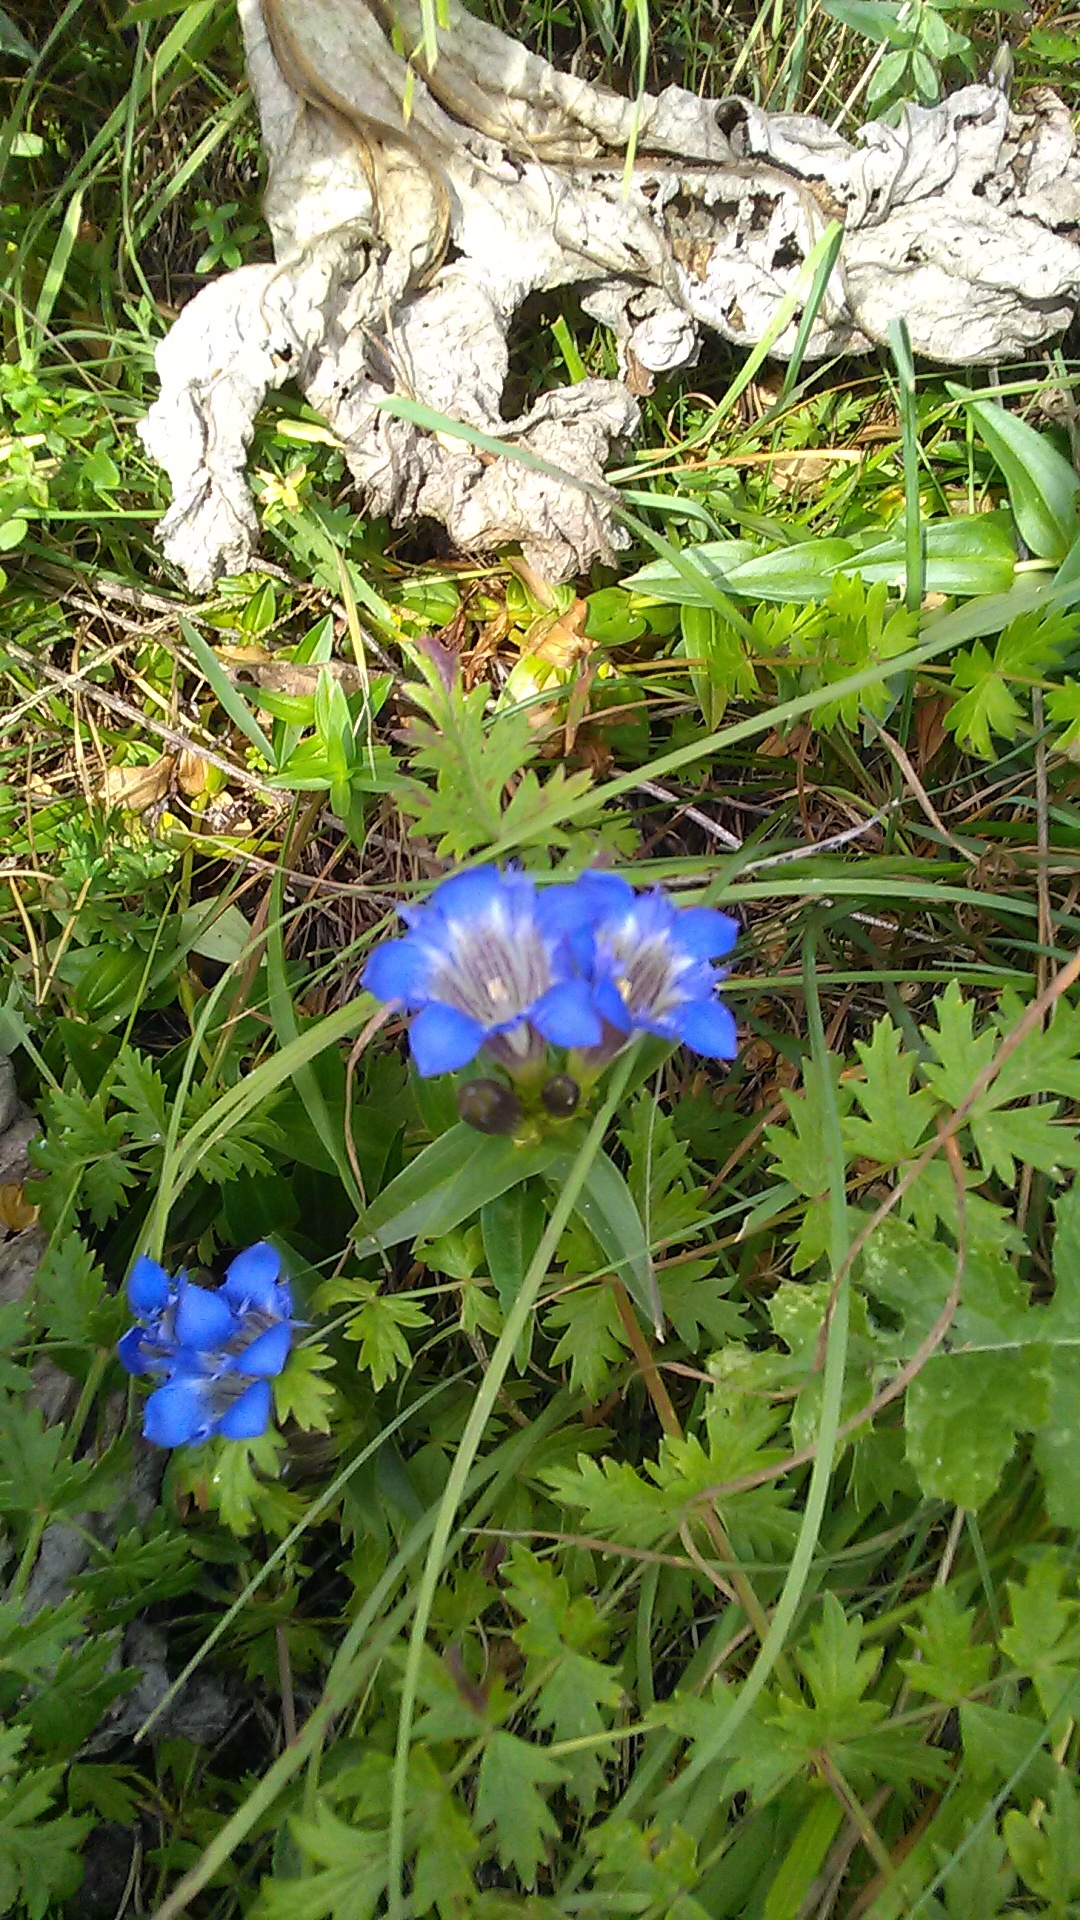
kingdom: Plantae
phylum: Tracheophyta
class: Magnoliopsida
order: Gentianales
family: Gentianaceae
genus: Gentiana
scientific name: Gentiana septemfida
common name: Crested gentian
